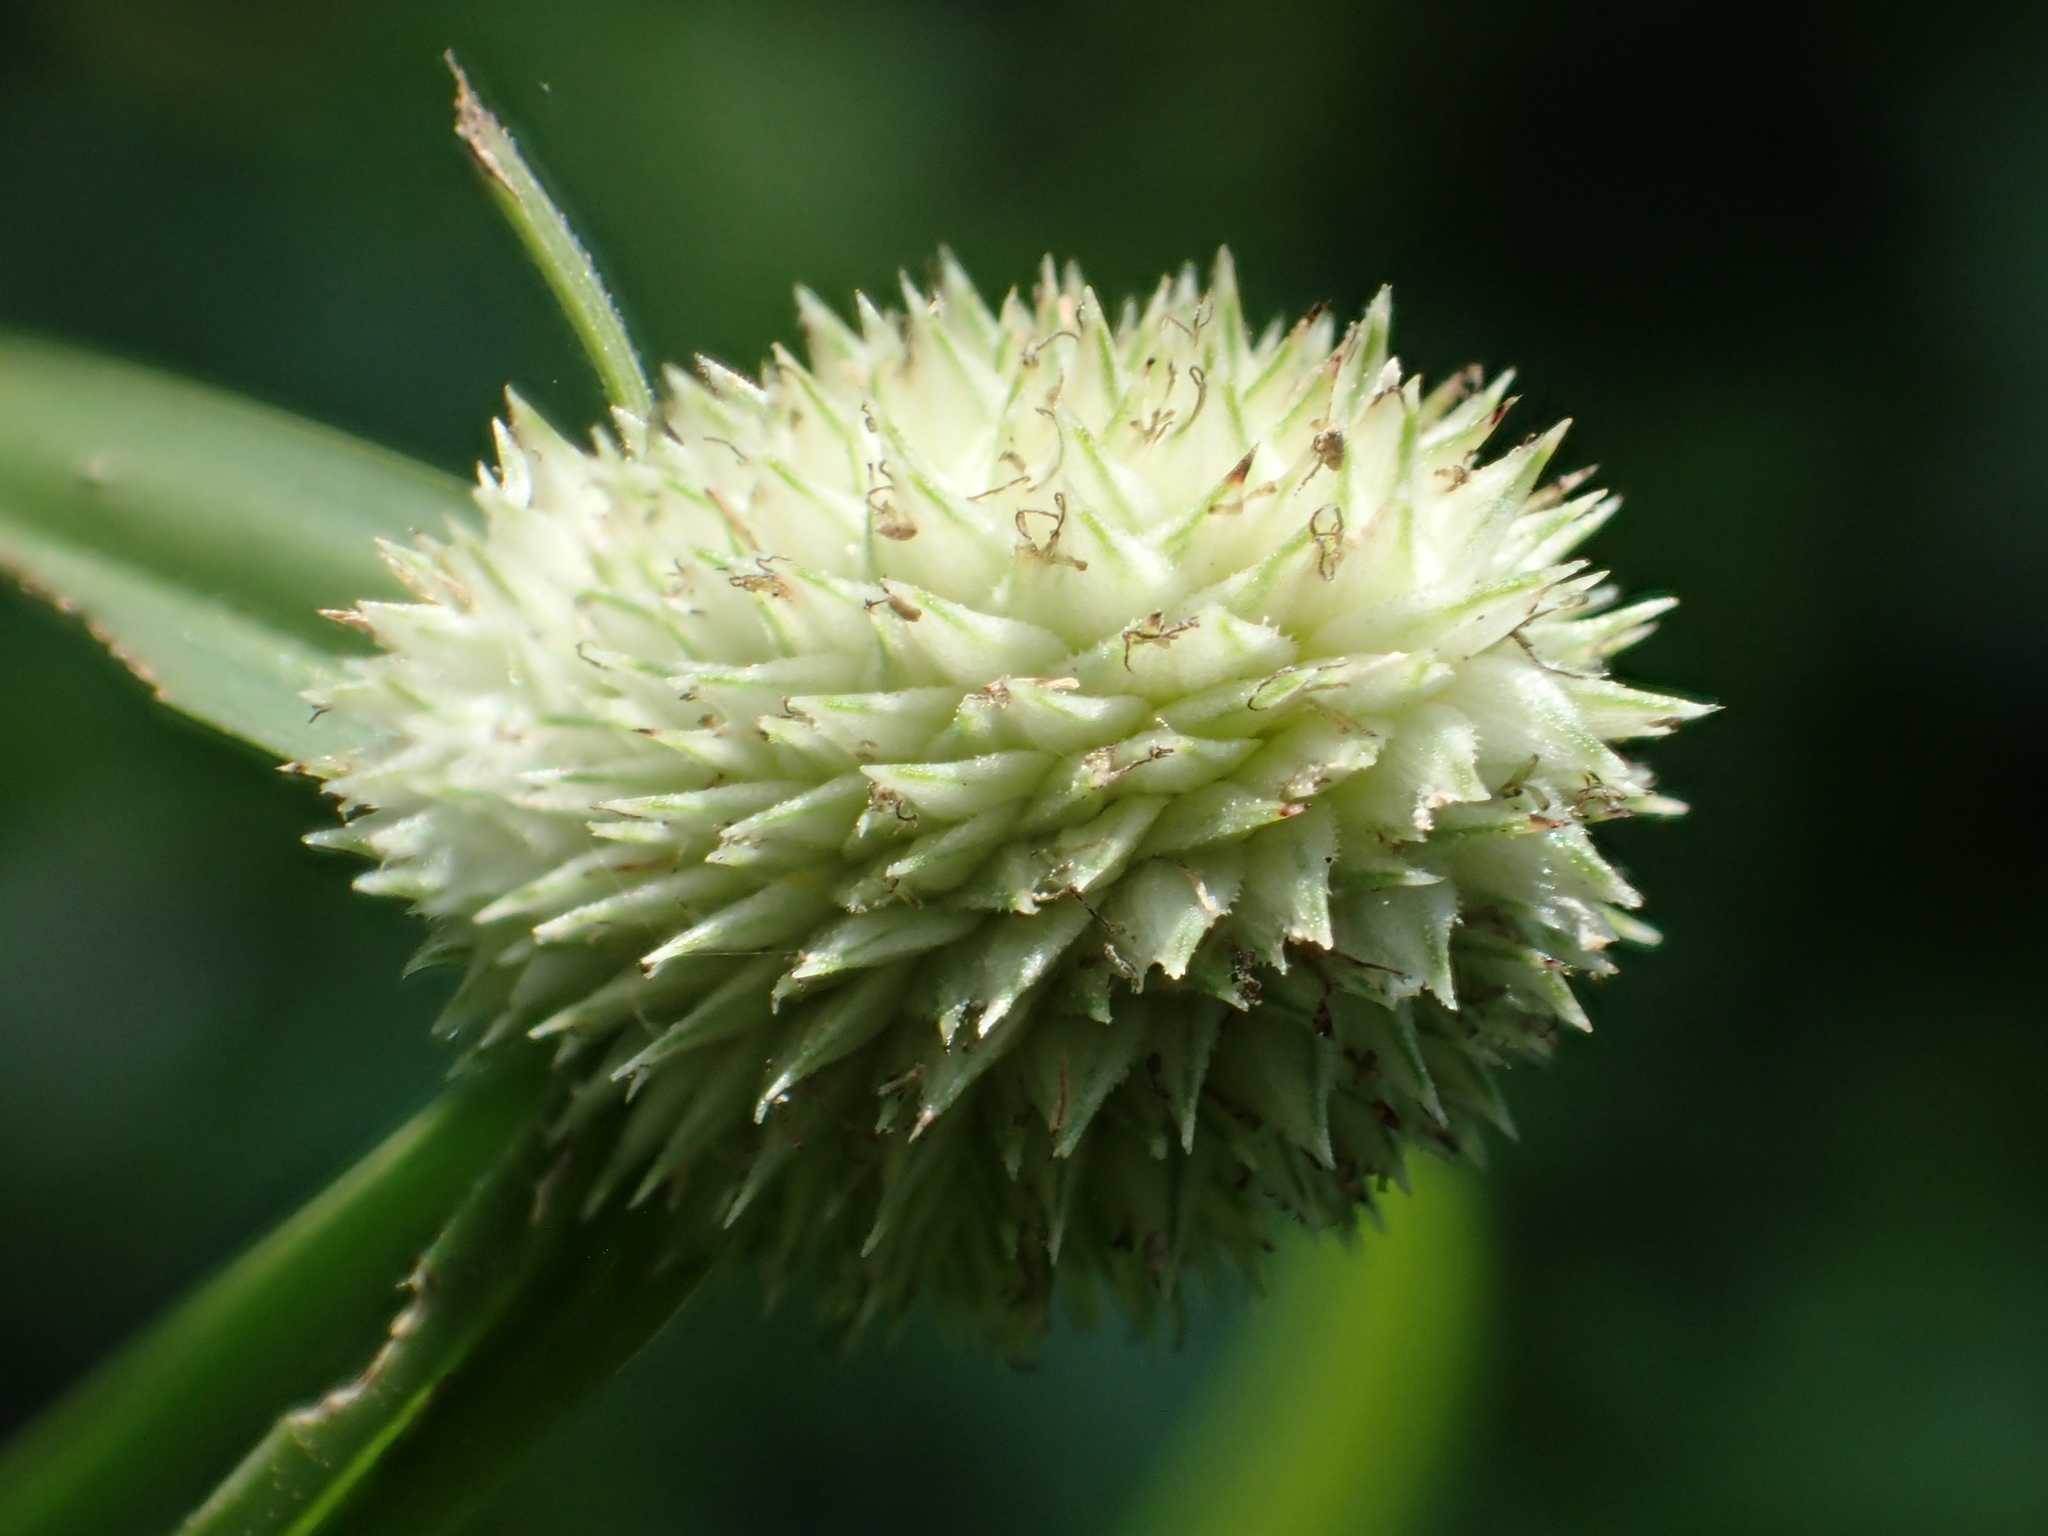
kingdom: Plantae
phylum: Tracheophyta
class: Liliopsida
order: Poales
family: Cyperaceae
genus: Cyperus
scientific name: Cyperus mindorensis
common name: Flatsedge
